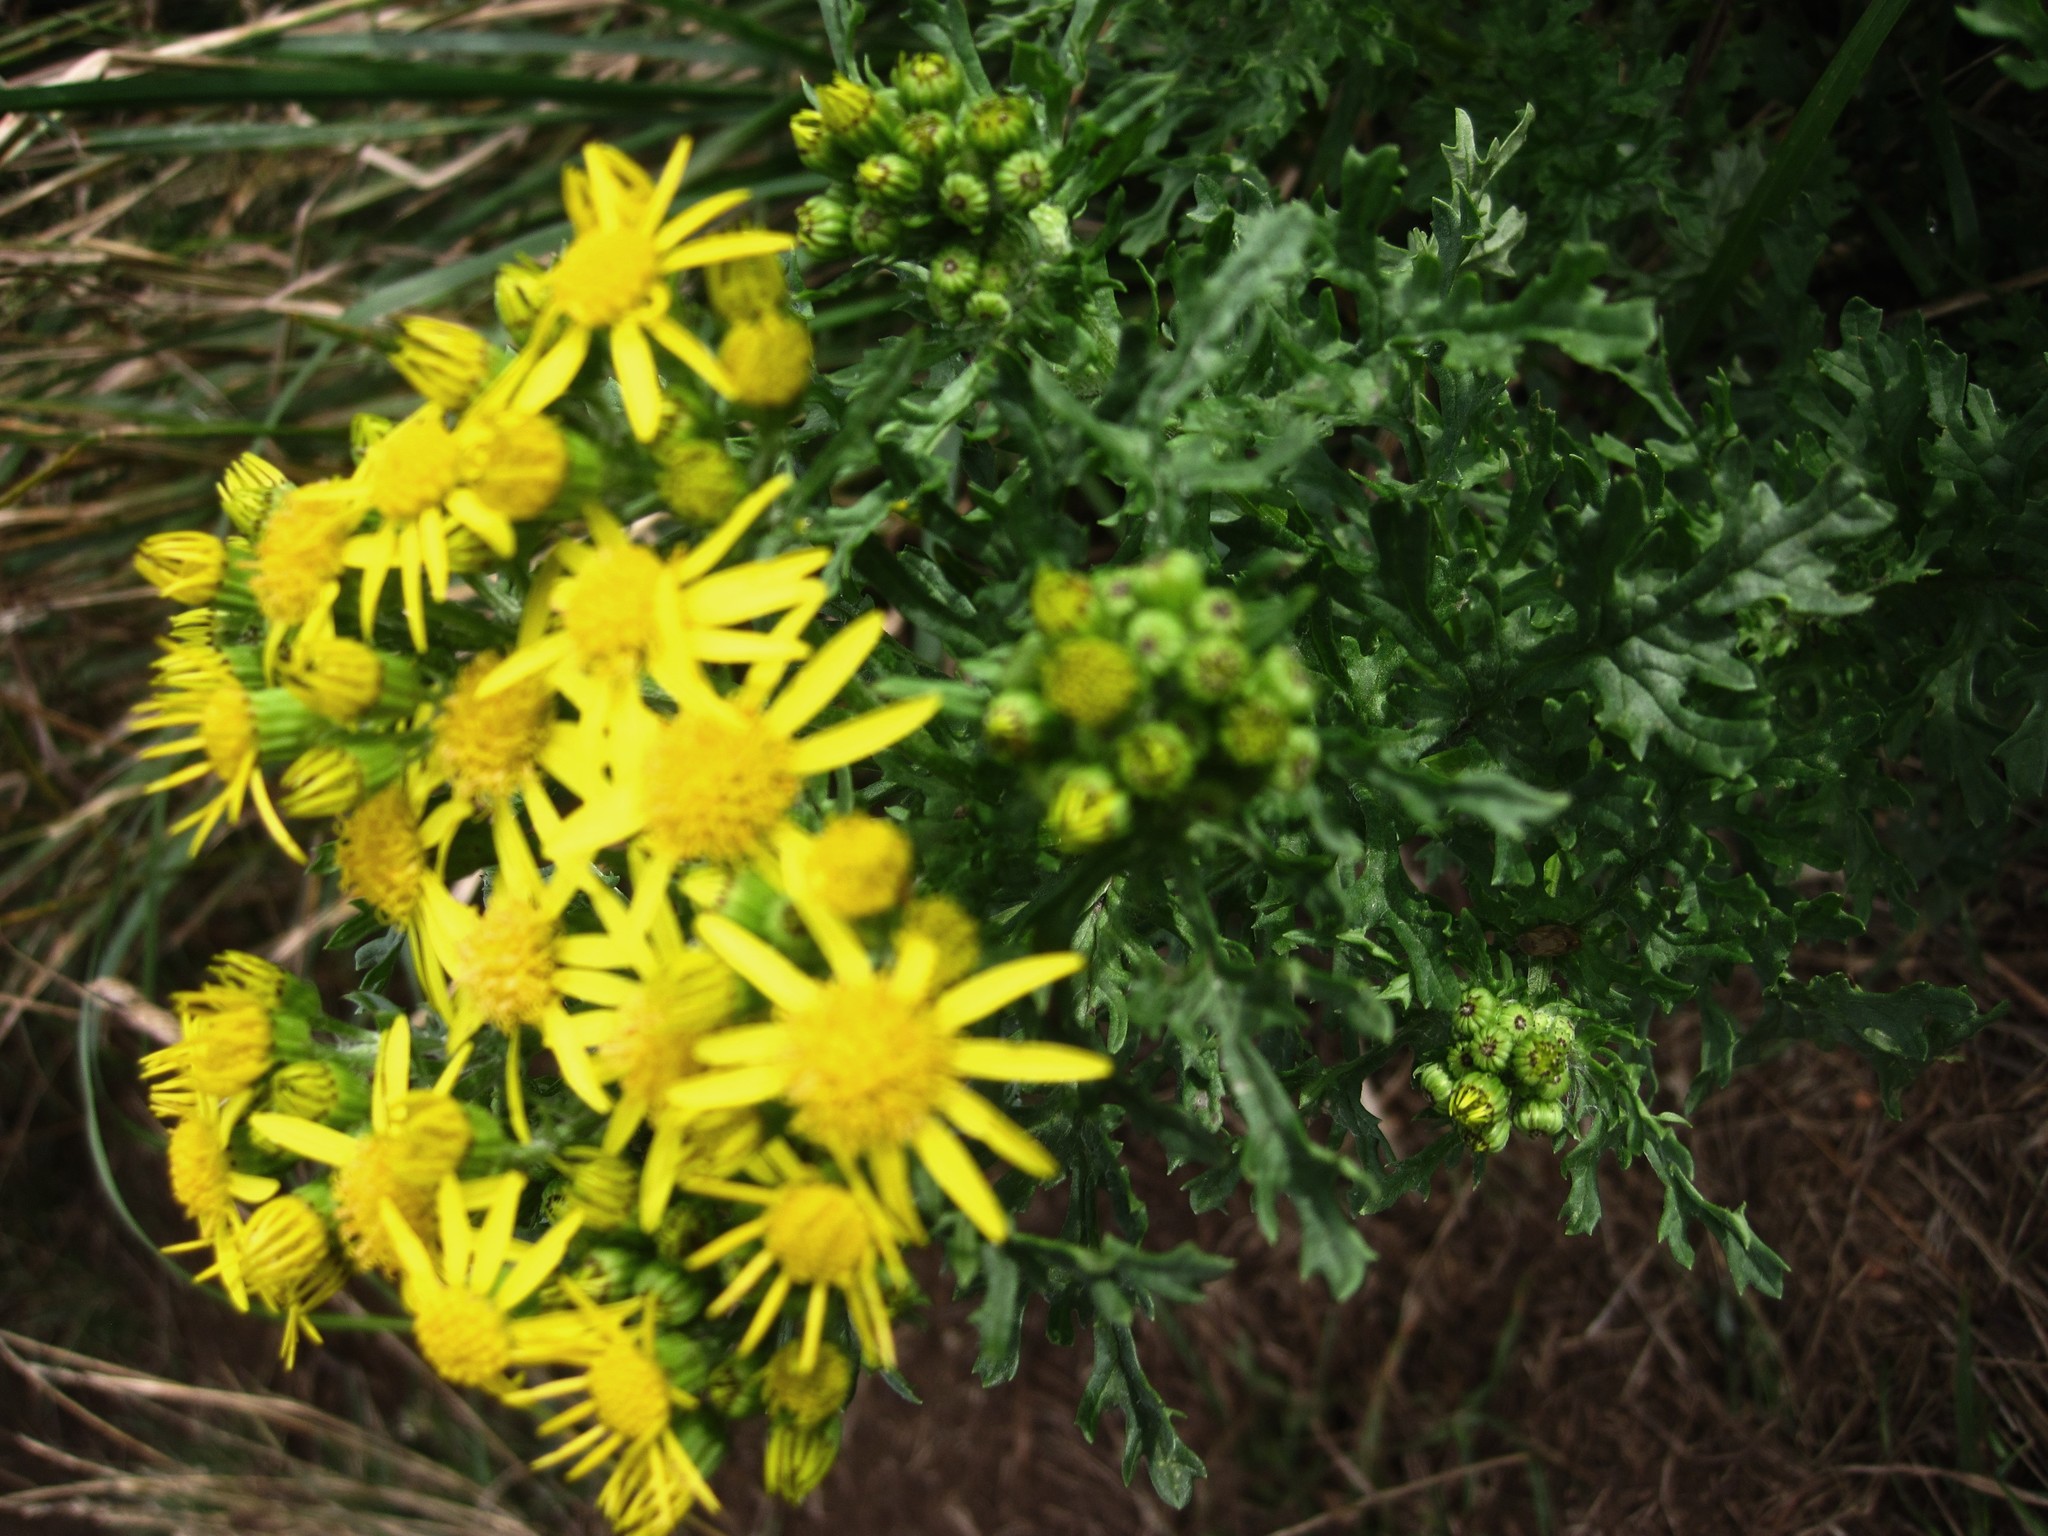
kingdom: Plantae
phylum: Tracheophyta
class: Magnoliopsida
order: Asterales
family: Asteraceae
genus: Jacobaea
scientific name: Jacobaea vulgaris
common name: Stinking willie
